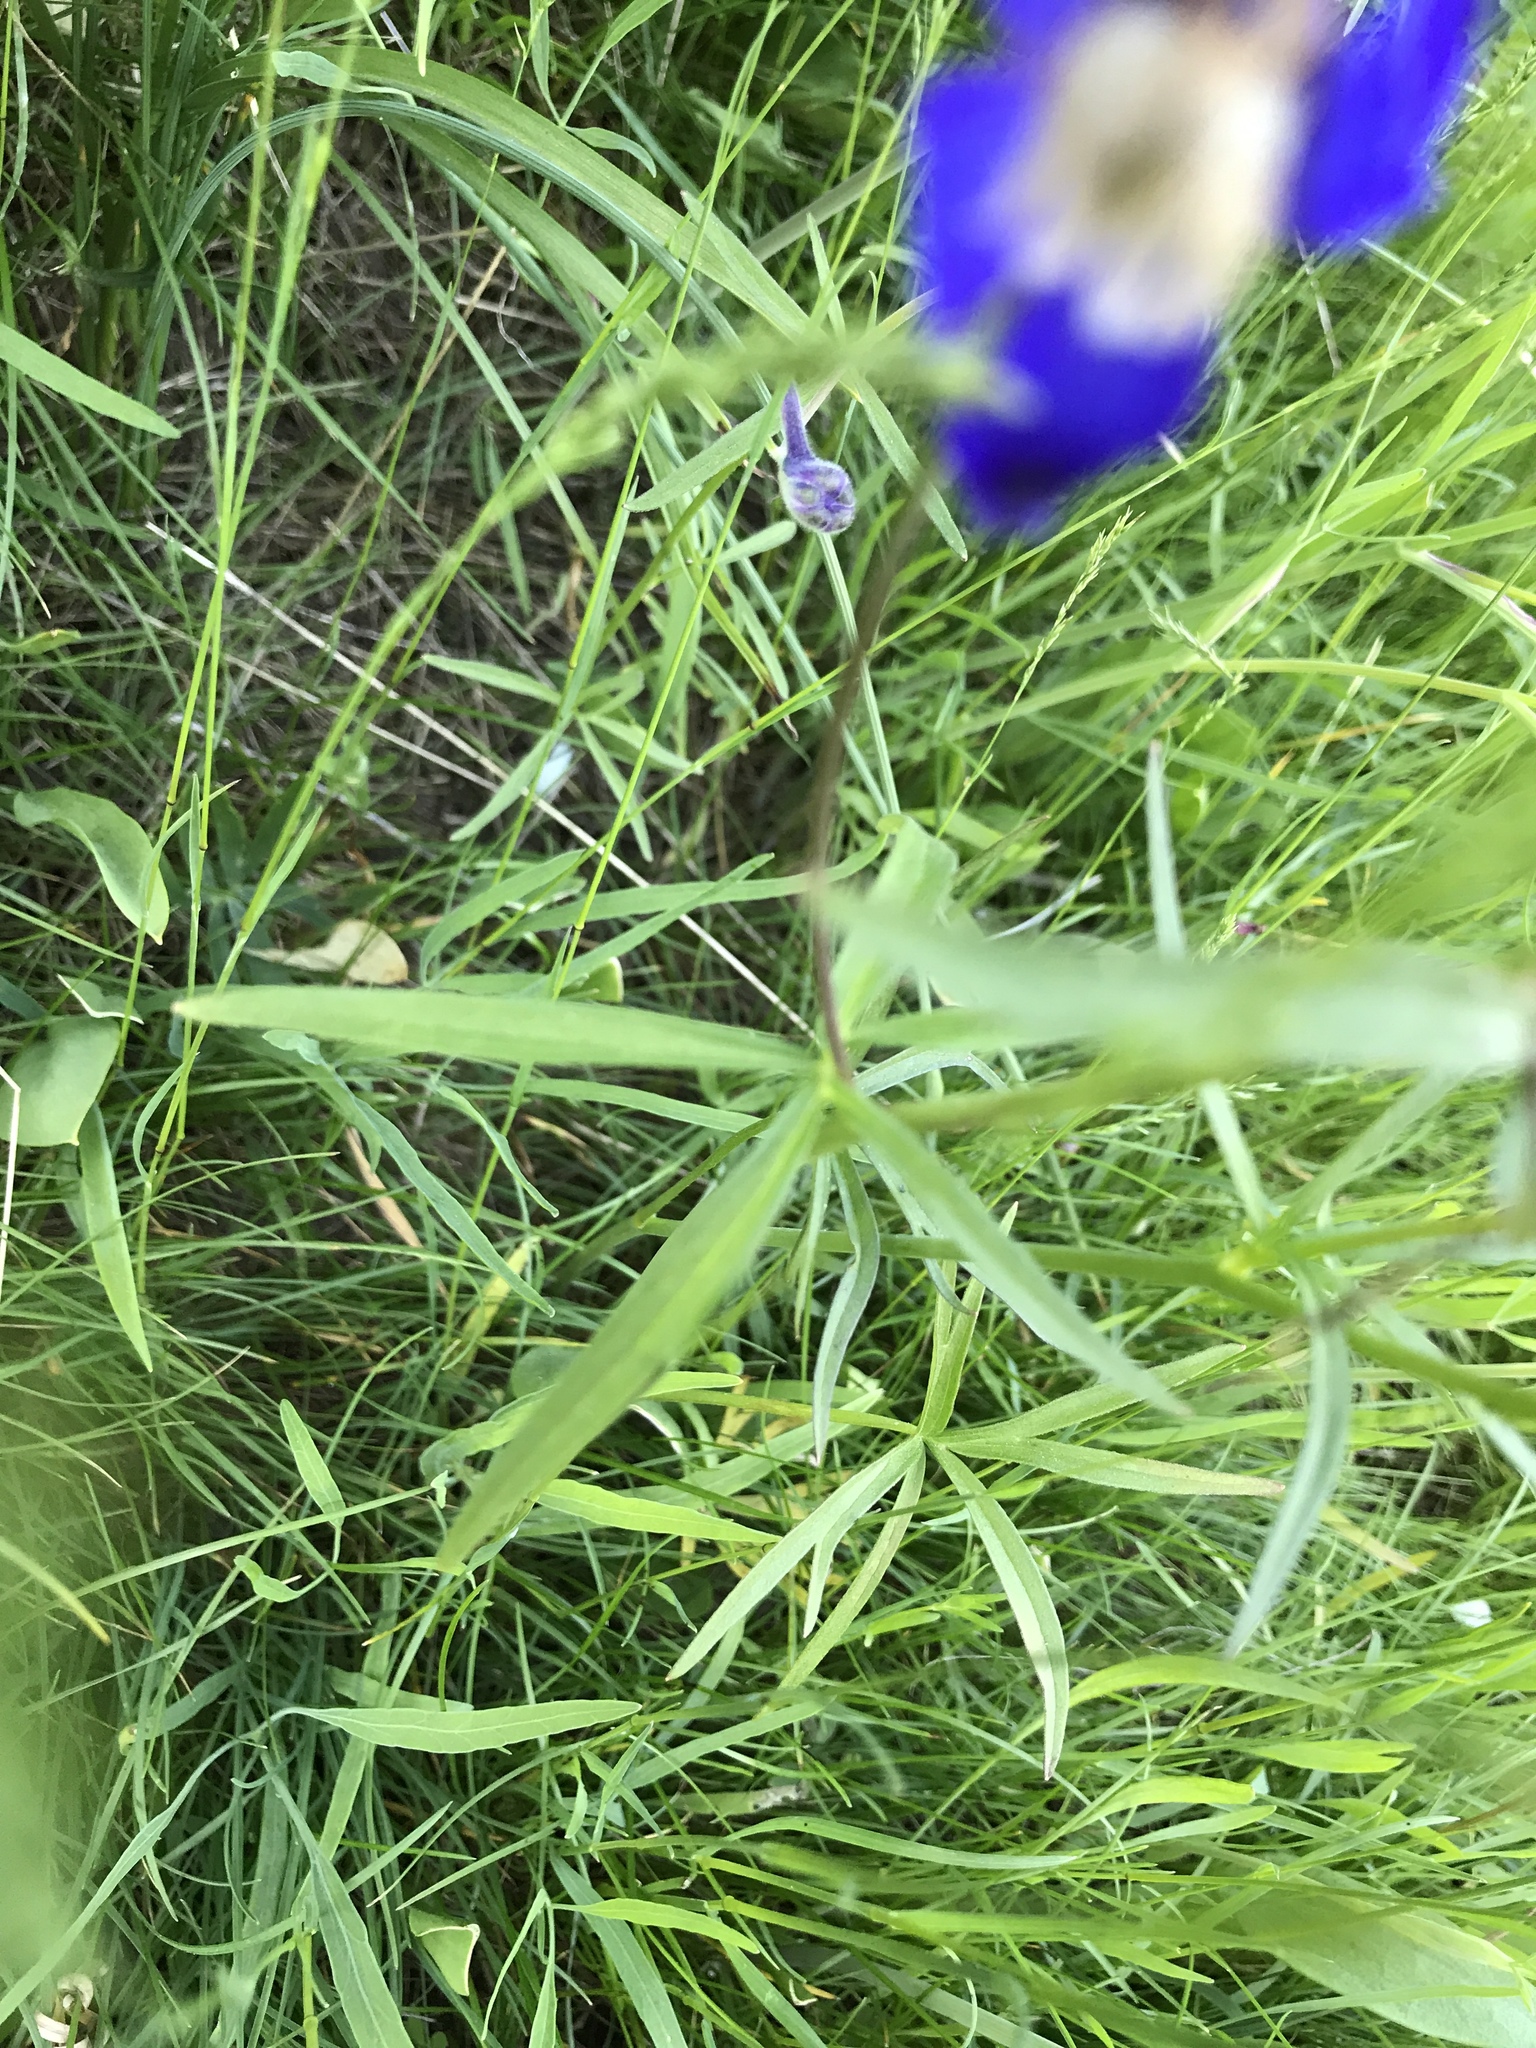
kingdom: Plantae
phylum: Tracheophyta
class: Magnoliopsida
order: Ranunculales
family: Ranunculaceae
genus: Delphinium
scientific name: Delphinium nuttallianum
